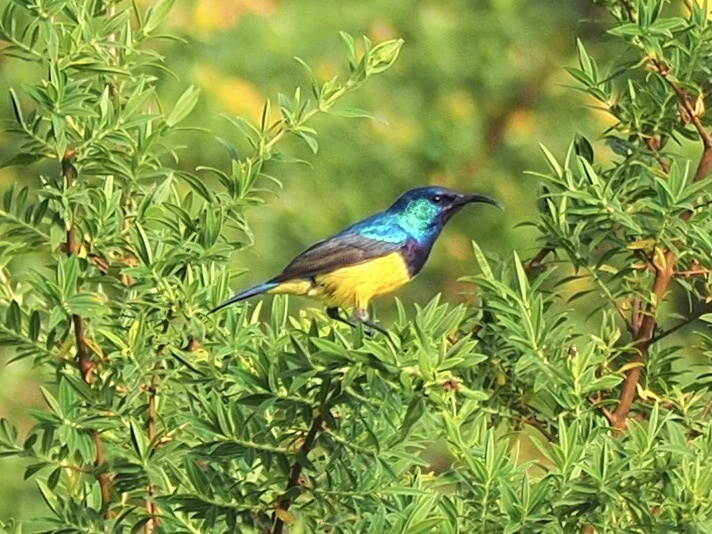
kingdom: Animalia
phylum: Chordata
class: Aves
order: Passeriformes
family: Nectariniidae
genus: Cinnyris
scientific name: Cinnyris venustus
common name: Variable sunbird
